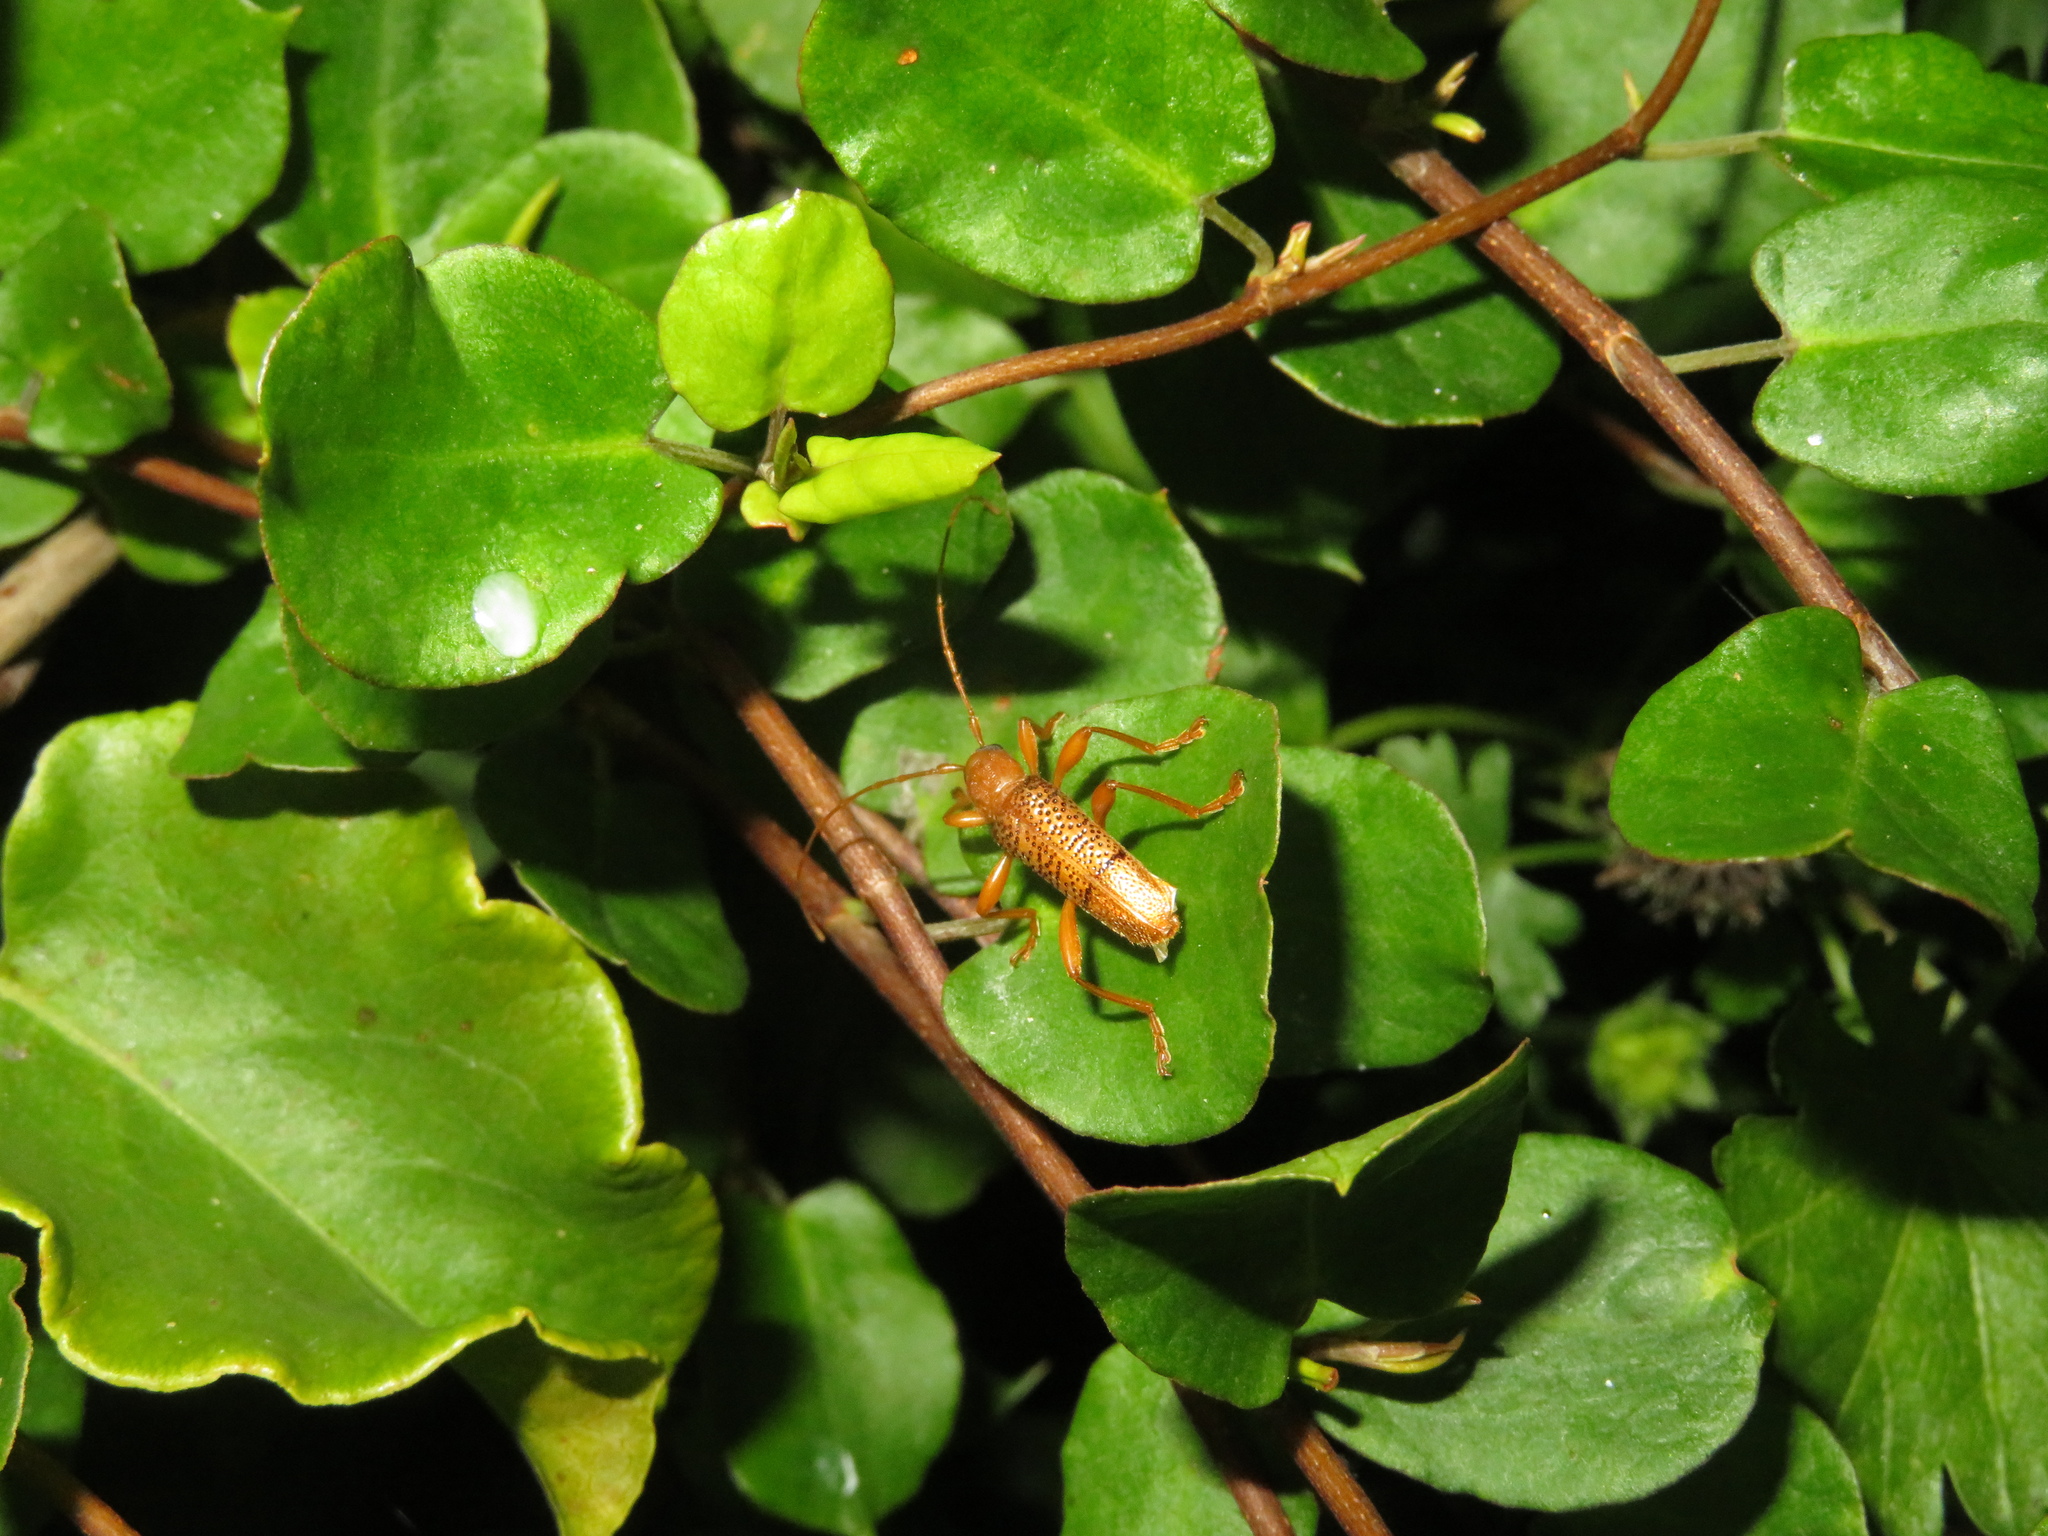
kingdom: Animalia
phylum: Arthropoda
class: Insecta
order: Coleoptera
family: Cerambycidae
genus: Xuthodes
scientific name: Xuthodes punctipennis
